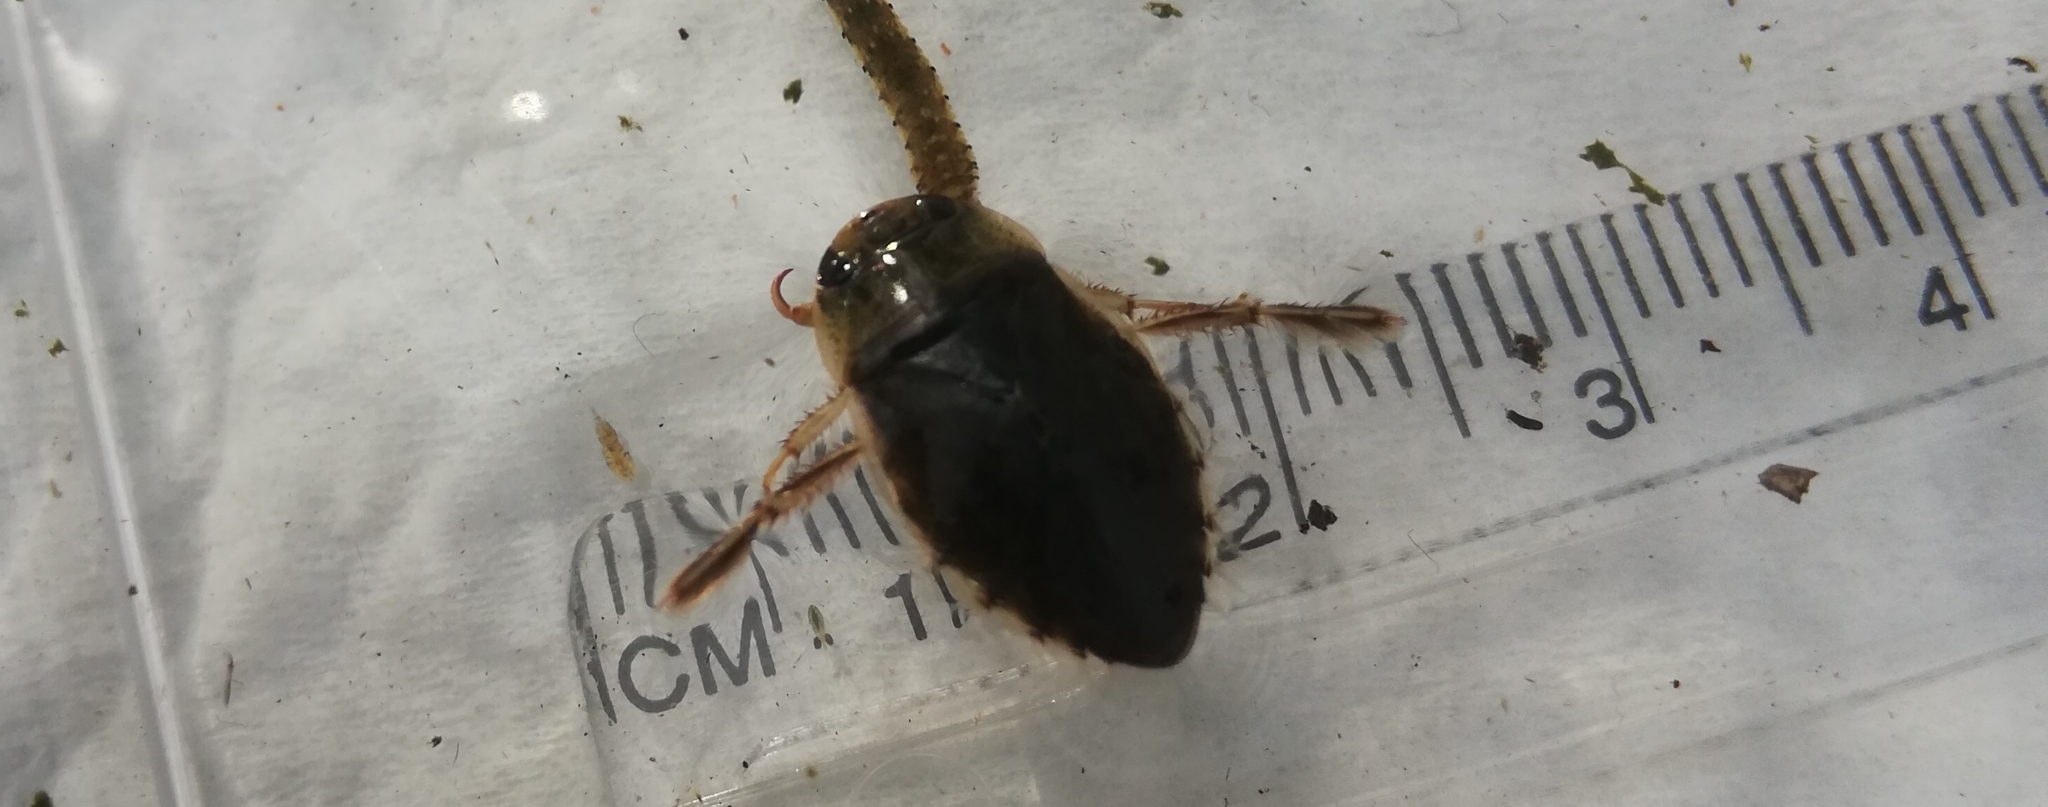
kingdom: Animalia
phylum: Arthropoda
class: Insecta
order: Hemiptera
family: Naucoridae
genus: Ilyocoris
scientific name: Ilyocoris cimicoides
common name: Saucer bugs
